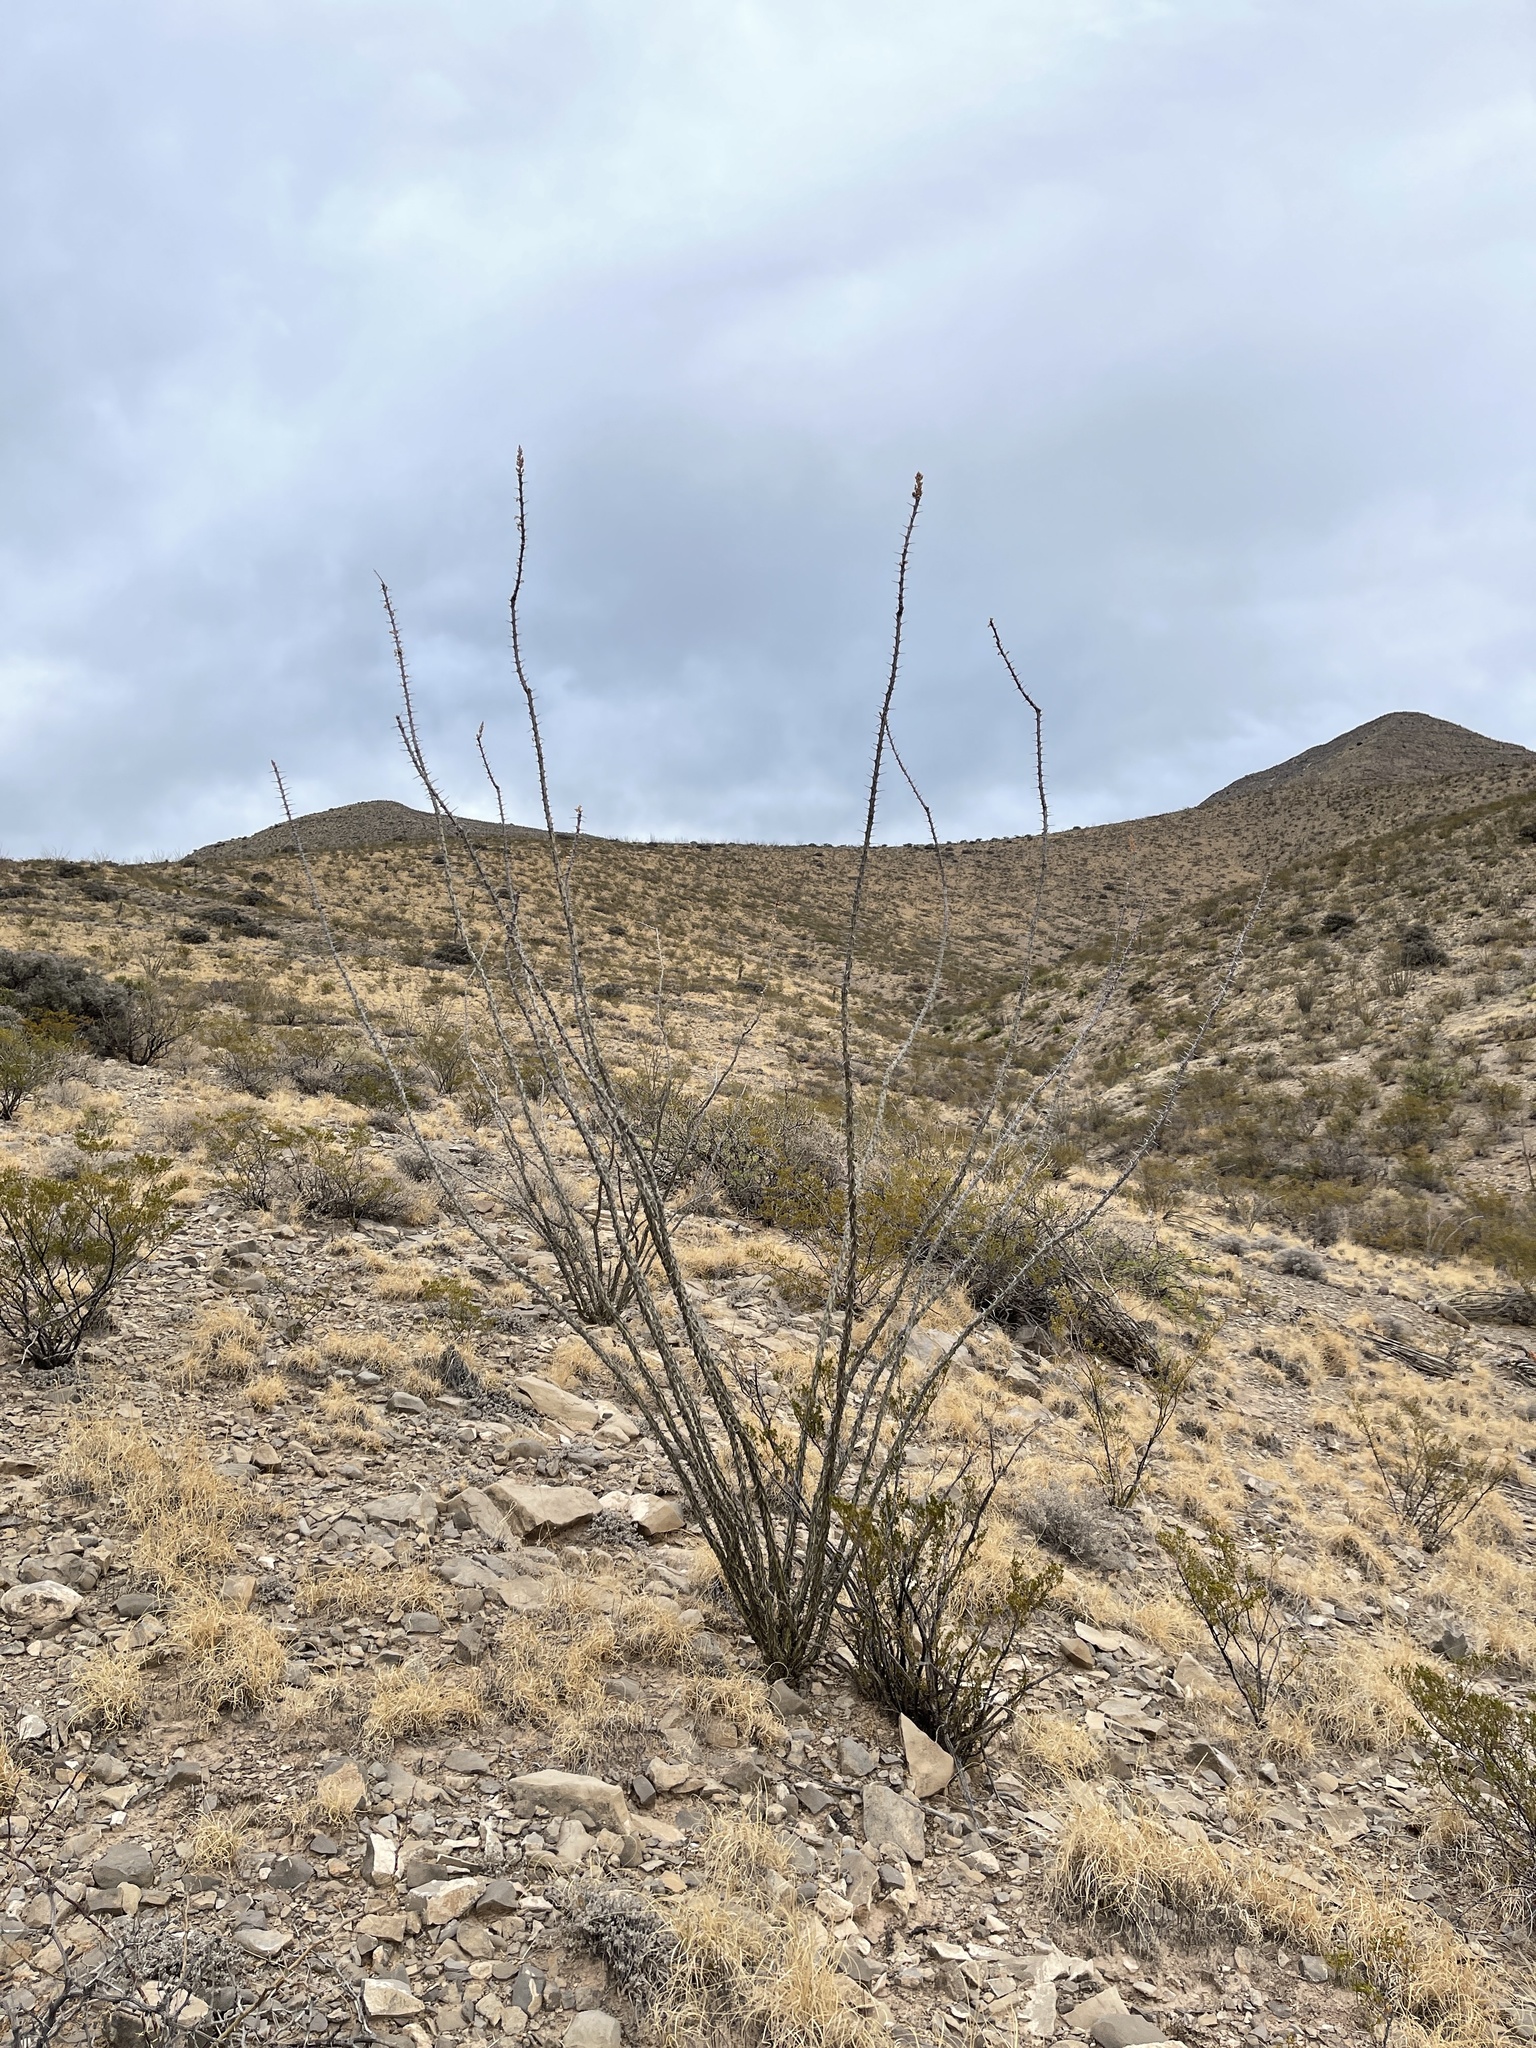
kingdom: Plantae
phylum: Tracheophyta
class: Magnoliopsida
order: Ericales
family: Fouquieriaceae
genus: Fouquieria
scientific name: Fouquieria splendens
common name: Vine-cactus
